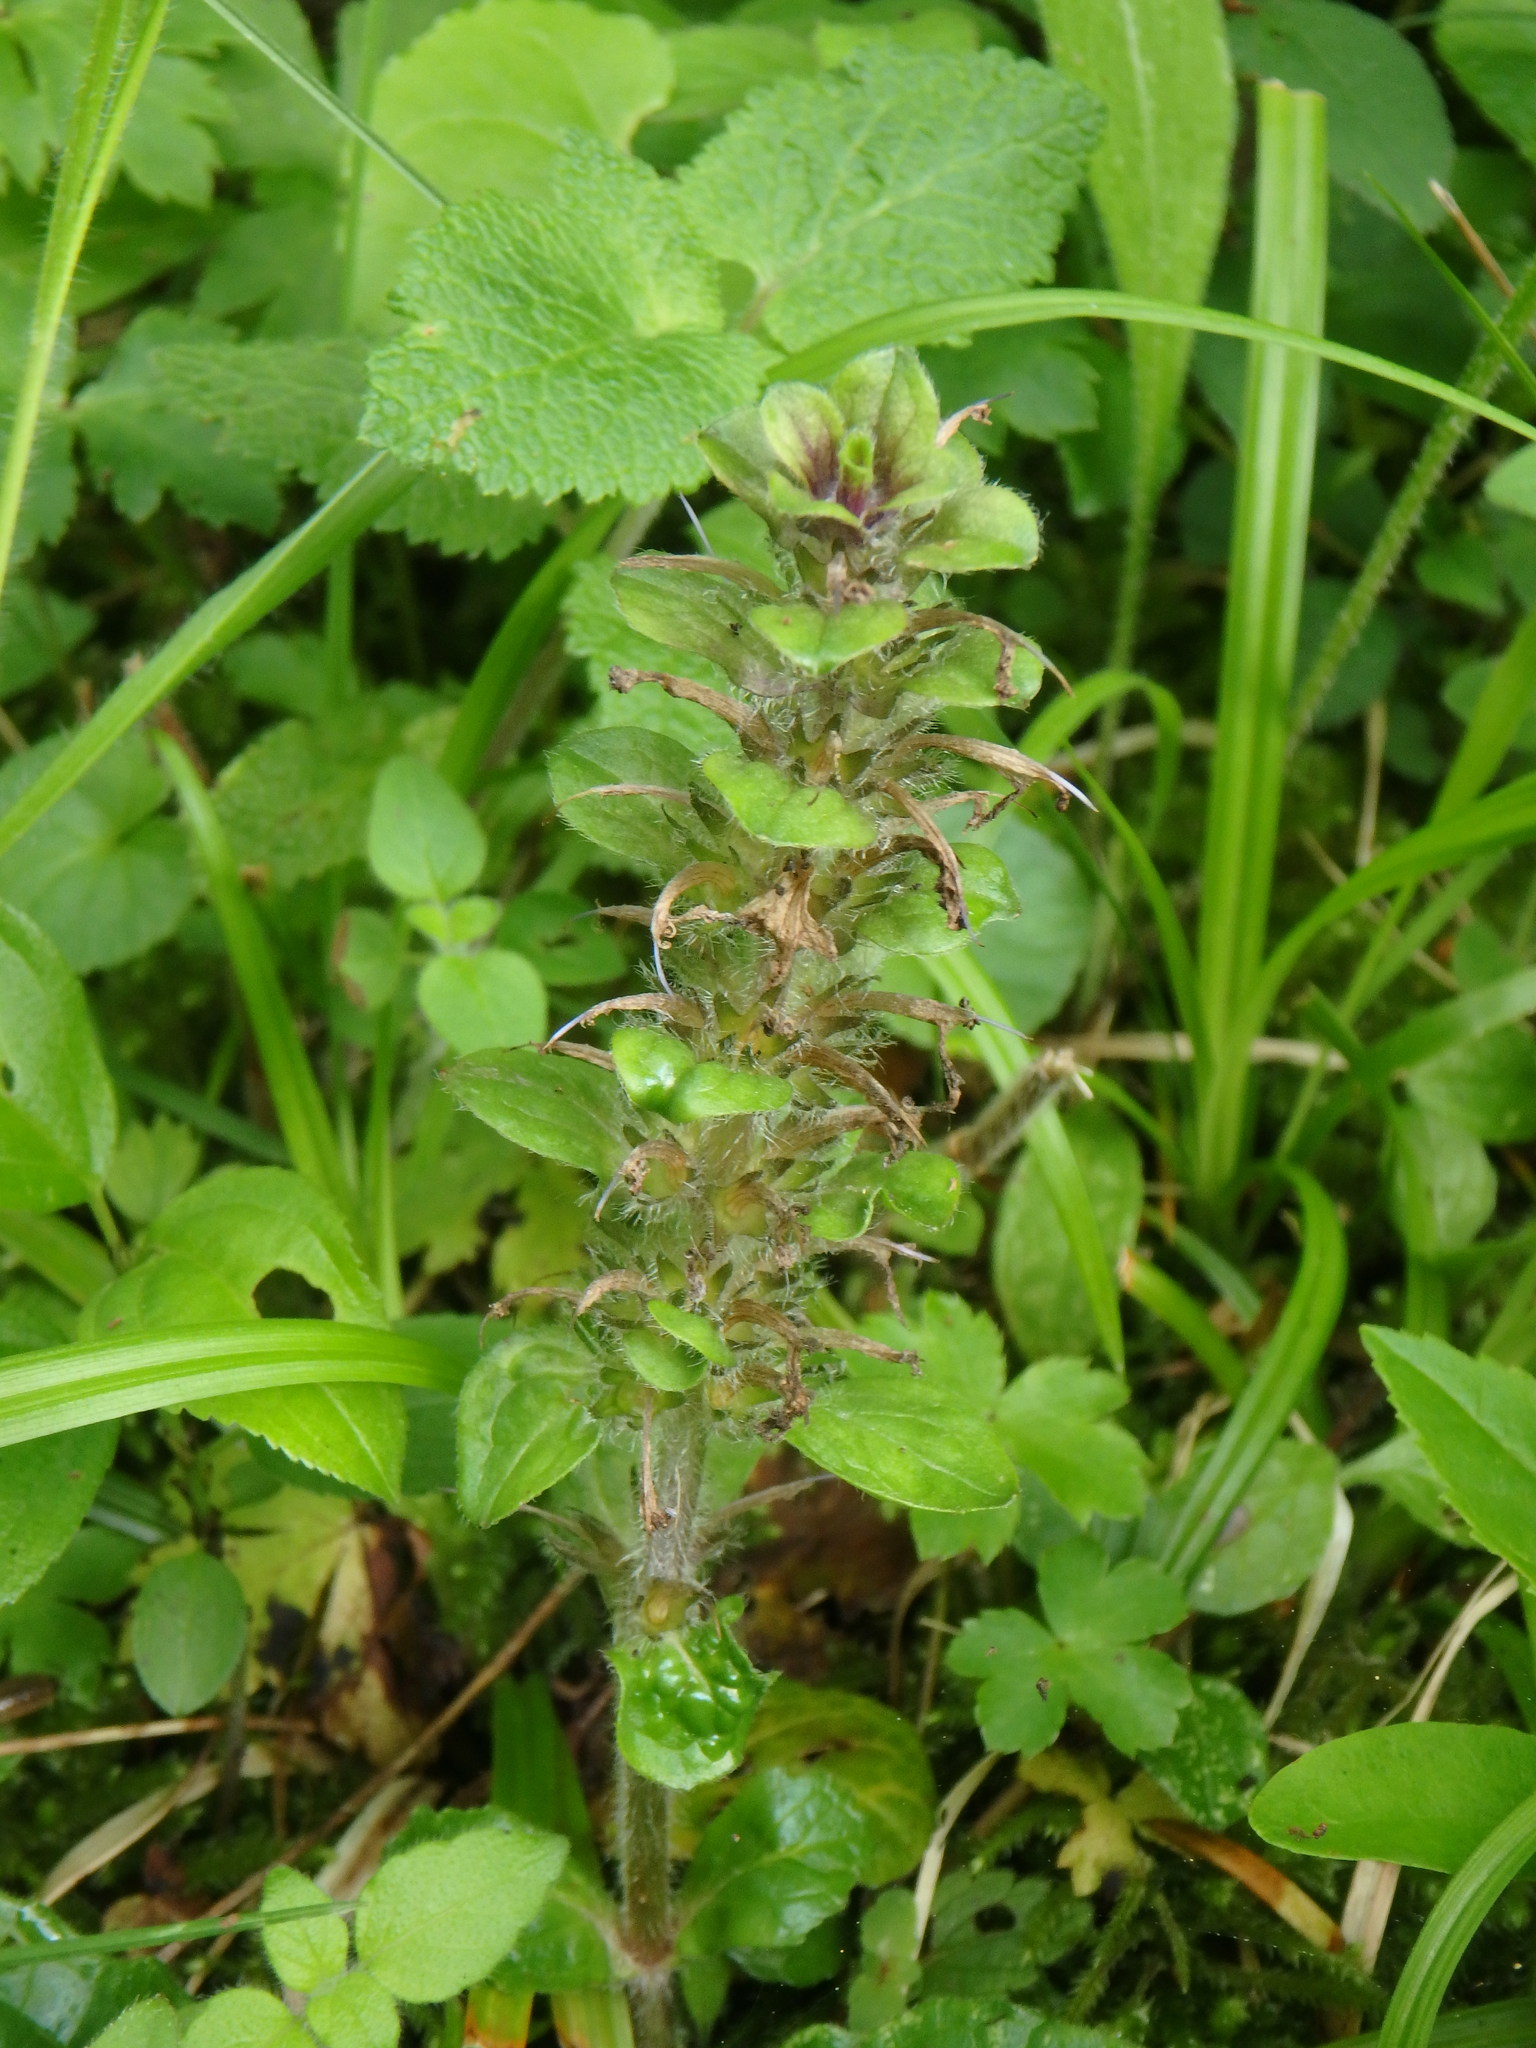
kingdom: Plantae
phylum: Tracheophyta
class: Magnoliopsida
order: Lamiales
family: Lamiaceae
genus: Ajuga
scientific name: Ajuga reptans
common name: Bugle
